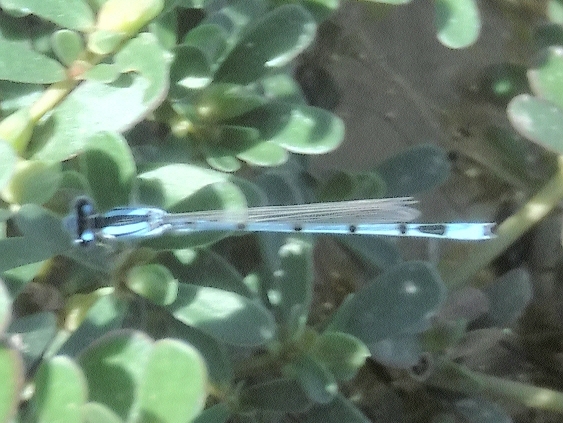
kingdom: Animalia
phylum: Arthropoda
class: Insecta
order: Odonata
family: Coenagrionidae
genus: Enallagma
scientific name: Enallagma civile
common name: Damselfly
